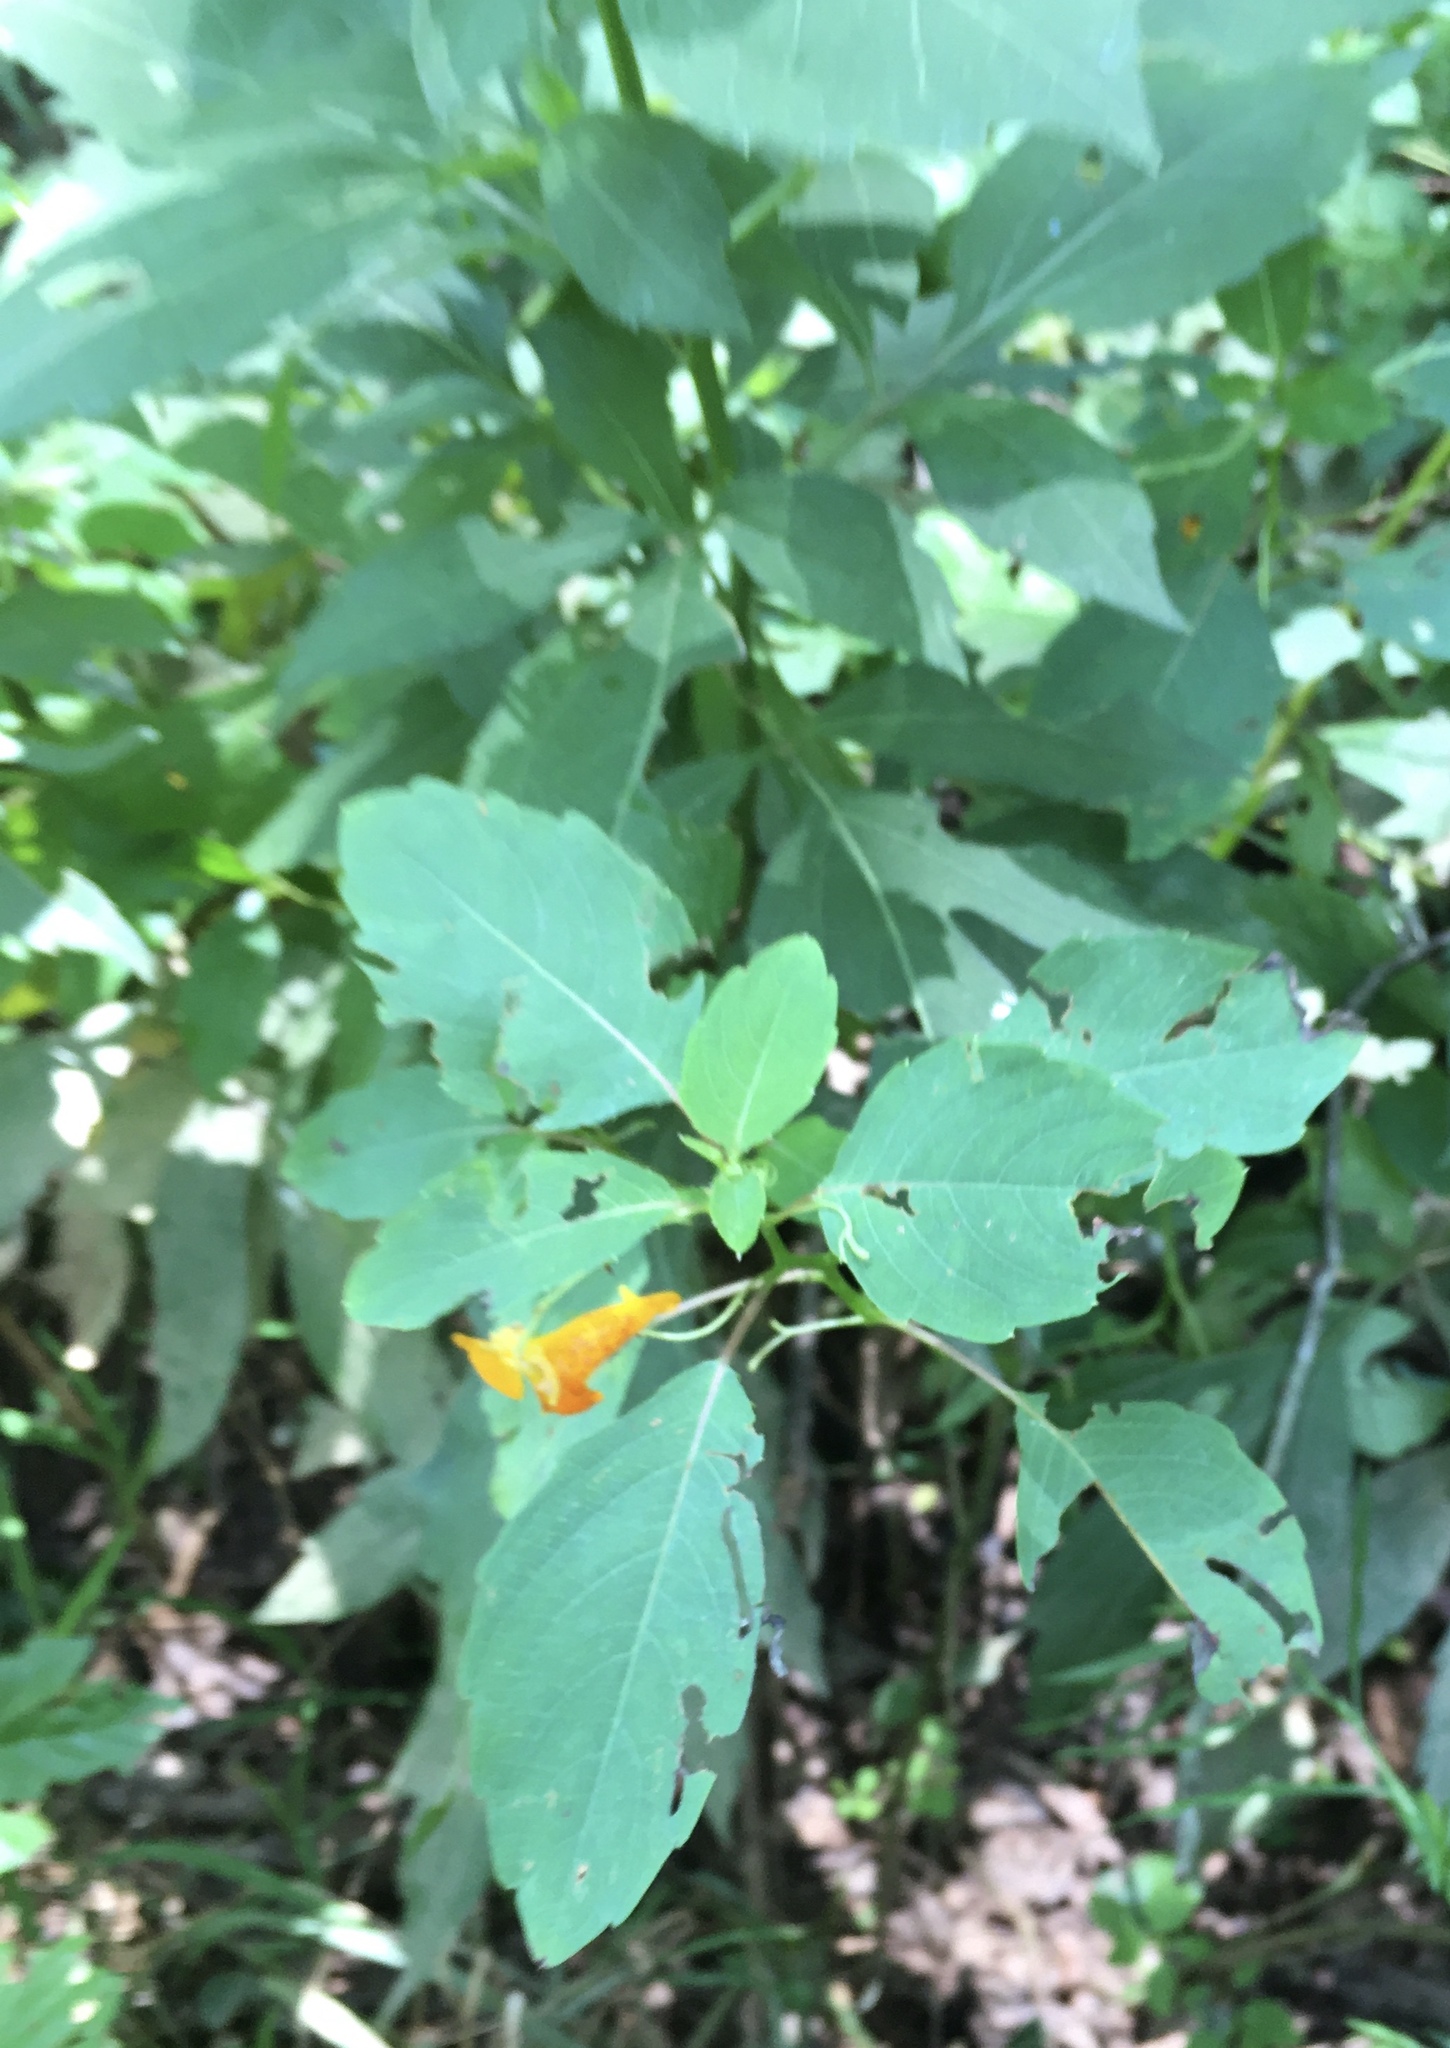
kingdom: Plantae
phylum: Tracheophyta
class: Magnoliopsida
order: Ericales
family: Balsaminaceae
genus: Impatiens
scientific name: Impatiens capensis
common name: Orange balsam
